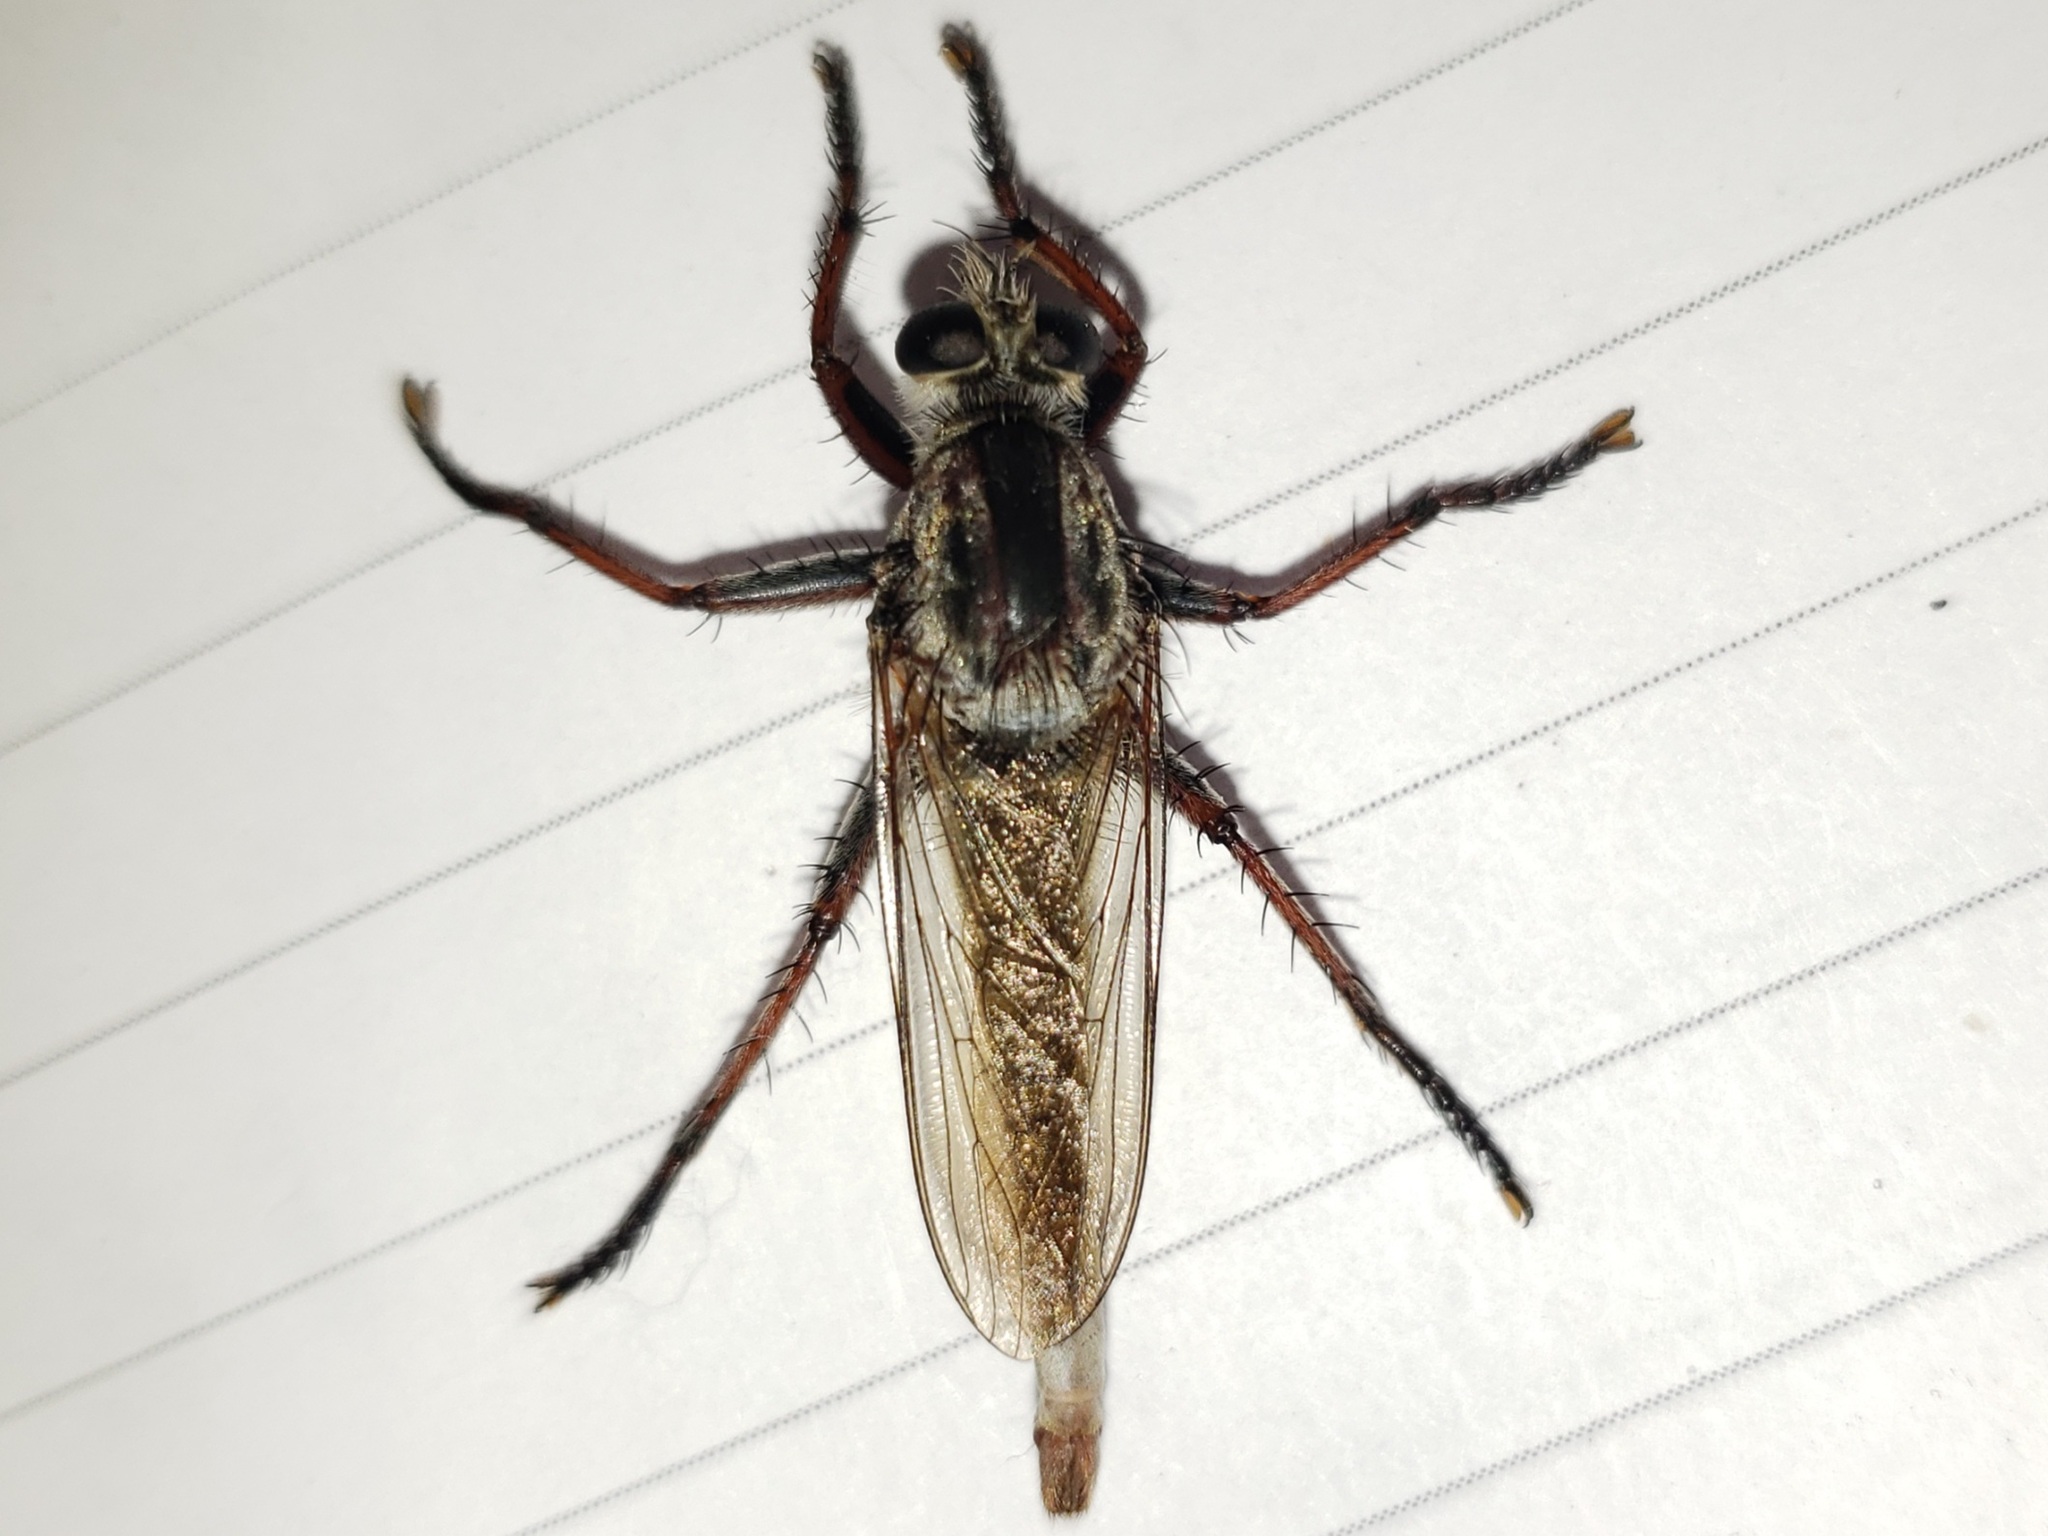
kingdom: Animalia
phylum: Arthropoda
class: Insecta
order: Diptera
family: Asilidae
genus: Proctacanthus
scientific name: Proctacanthus brevipennis
